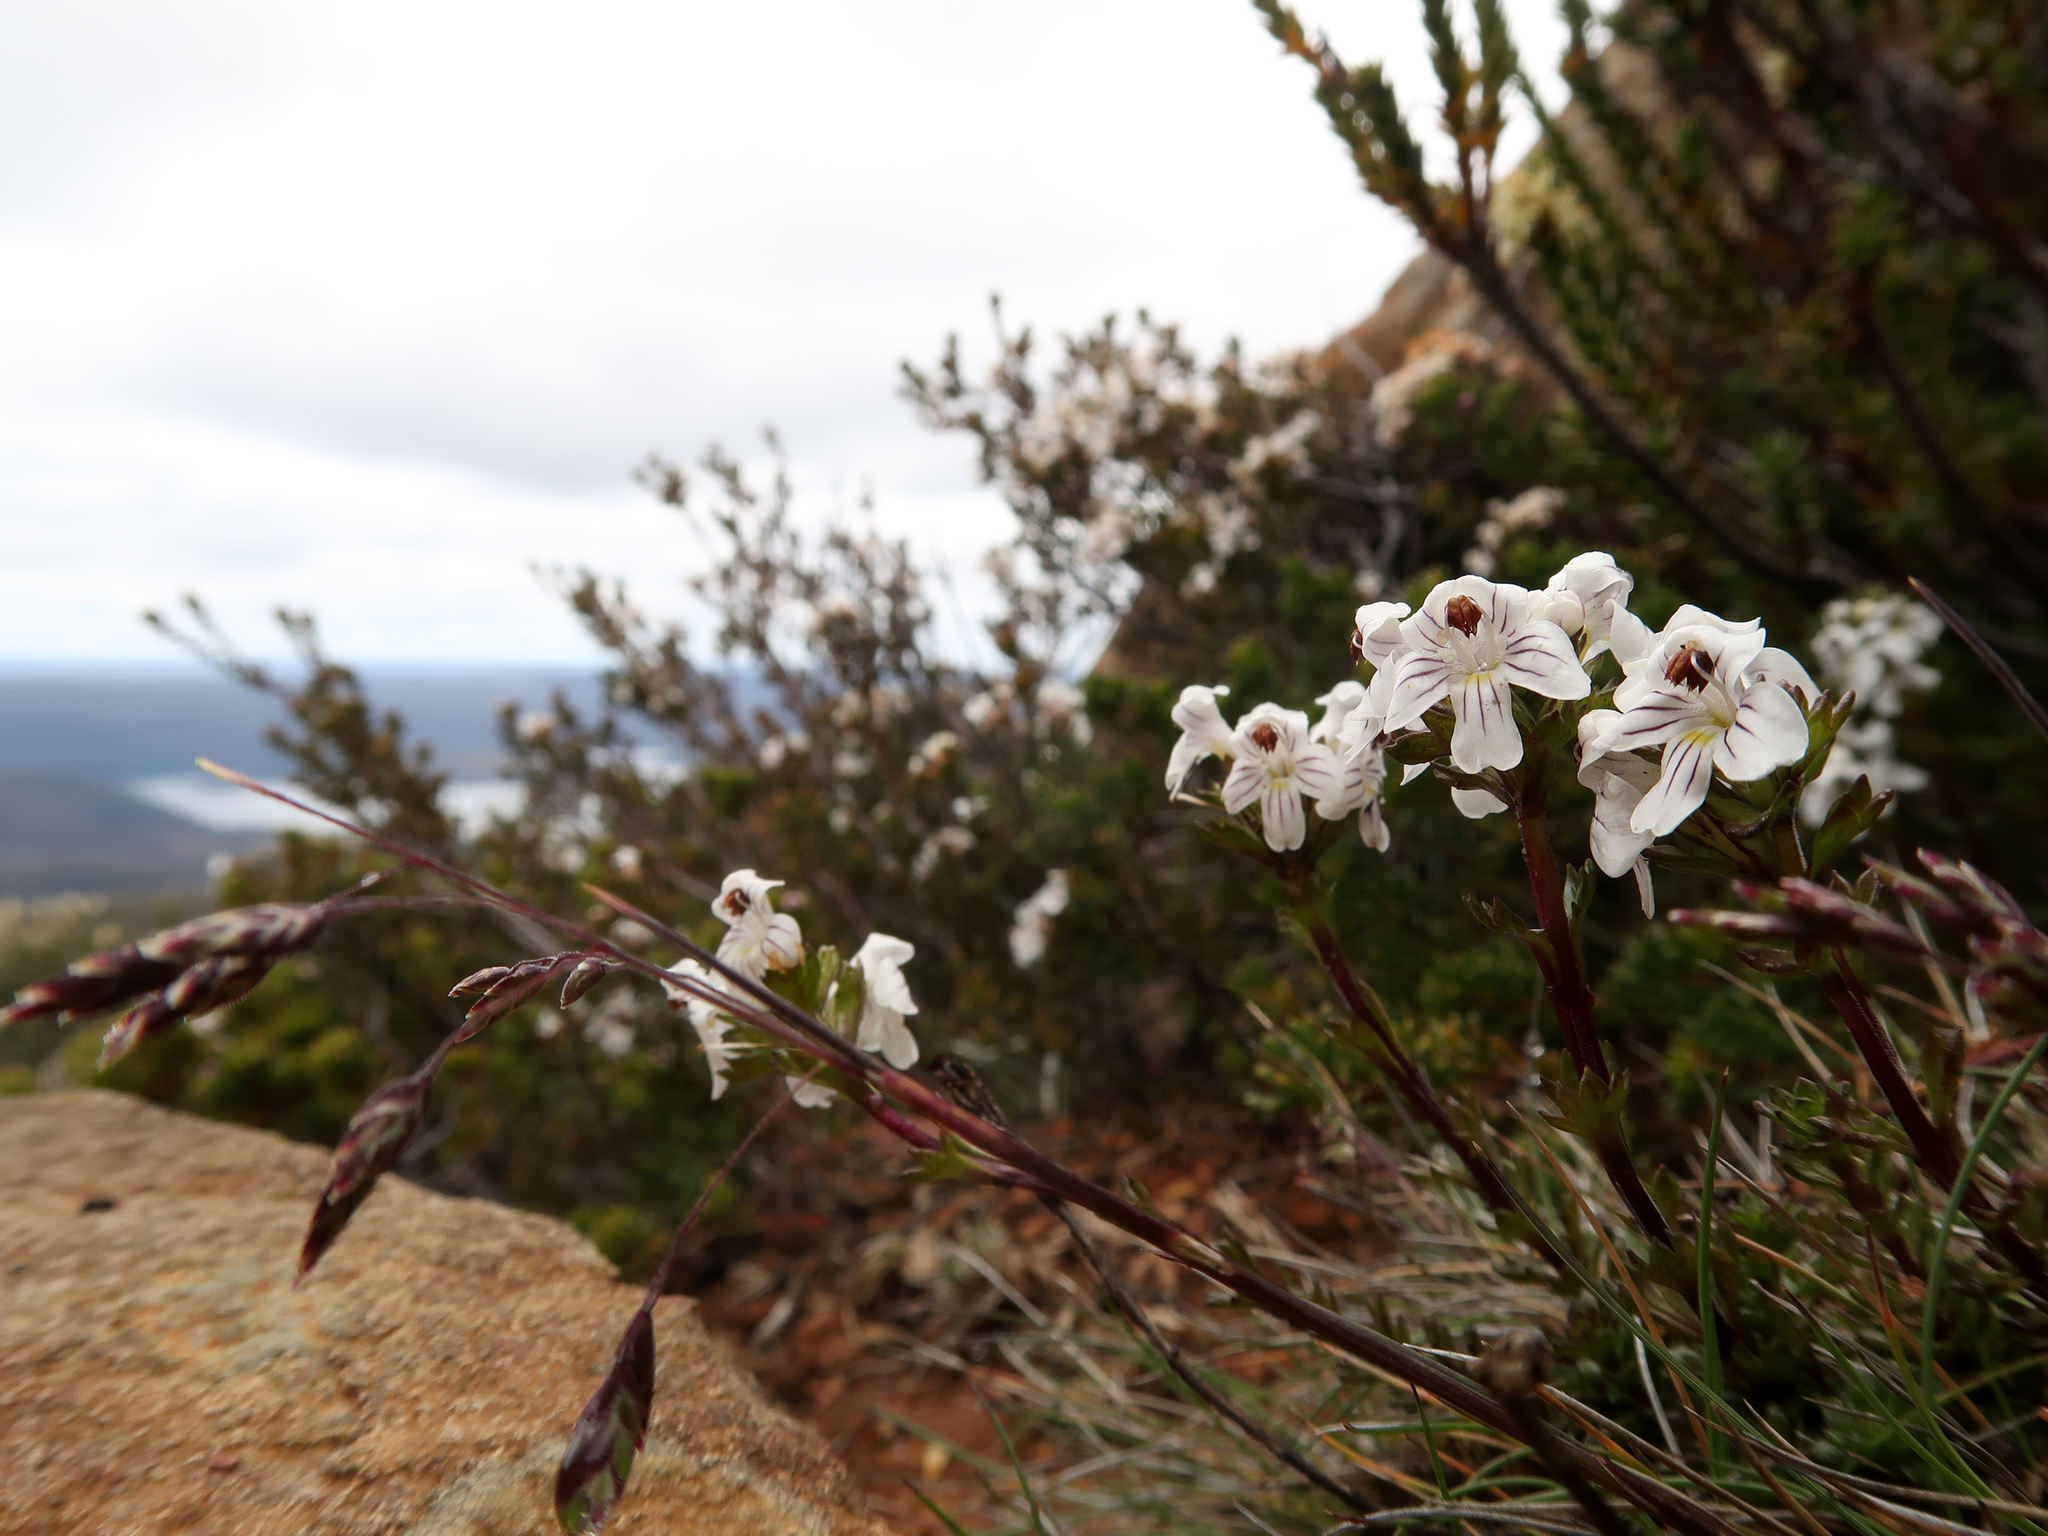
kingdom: Plantae
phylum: Tracheophyta
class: Magnoliopsida
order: Lamiales
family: Orobanchaceae
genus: Euphrasia
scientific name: Euphrasia striata
